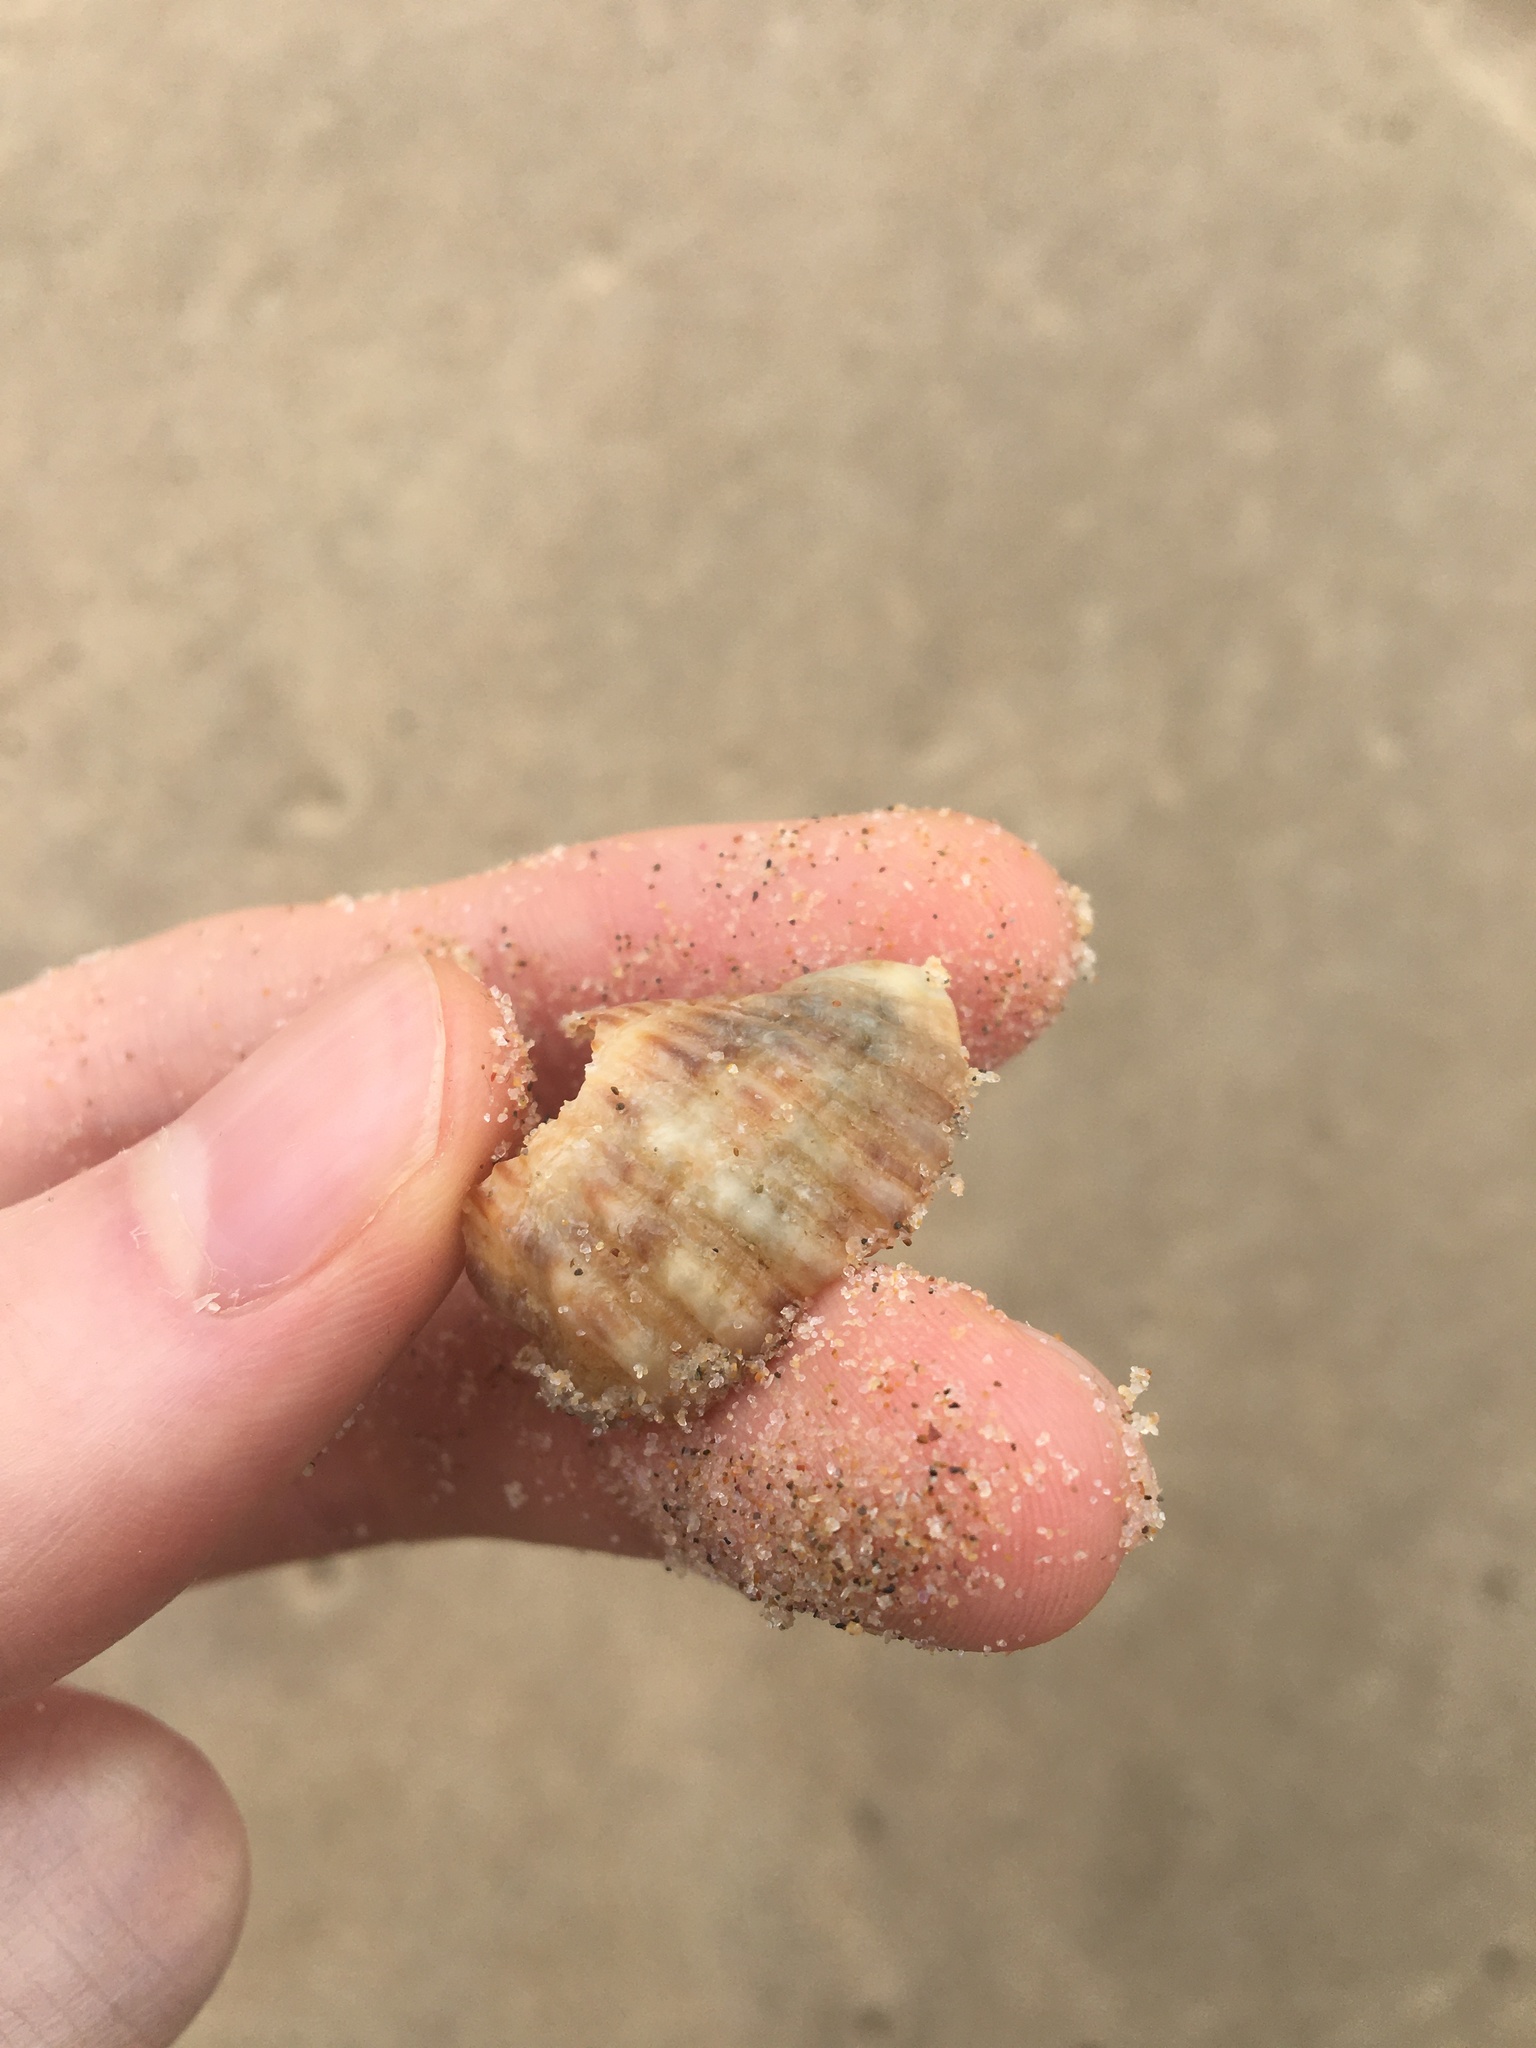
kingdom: Animalia
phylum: Mollusca
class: Gastropoda
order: Neogastropoda
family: Muricidae
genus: Dicathais
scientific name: Dicathais orbita
